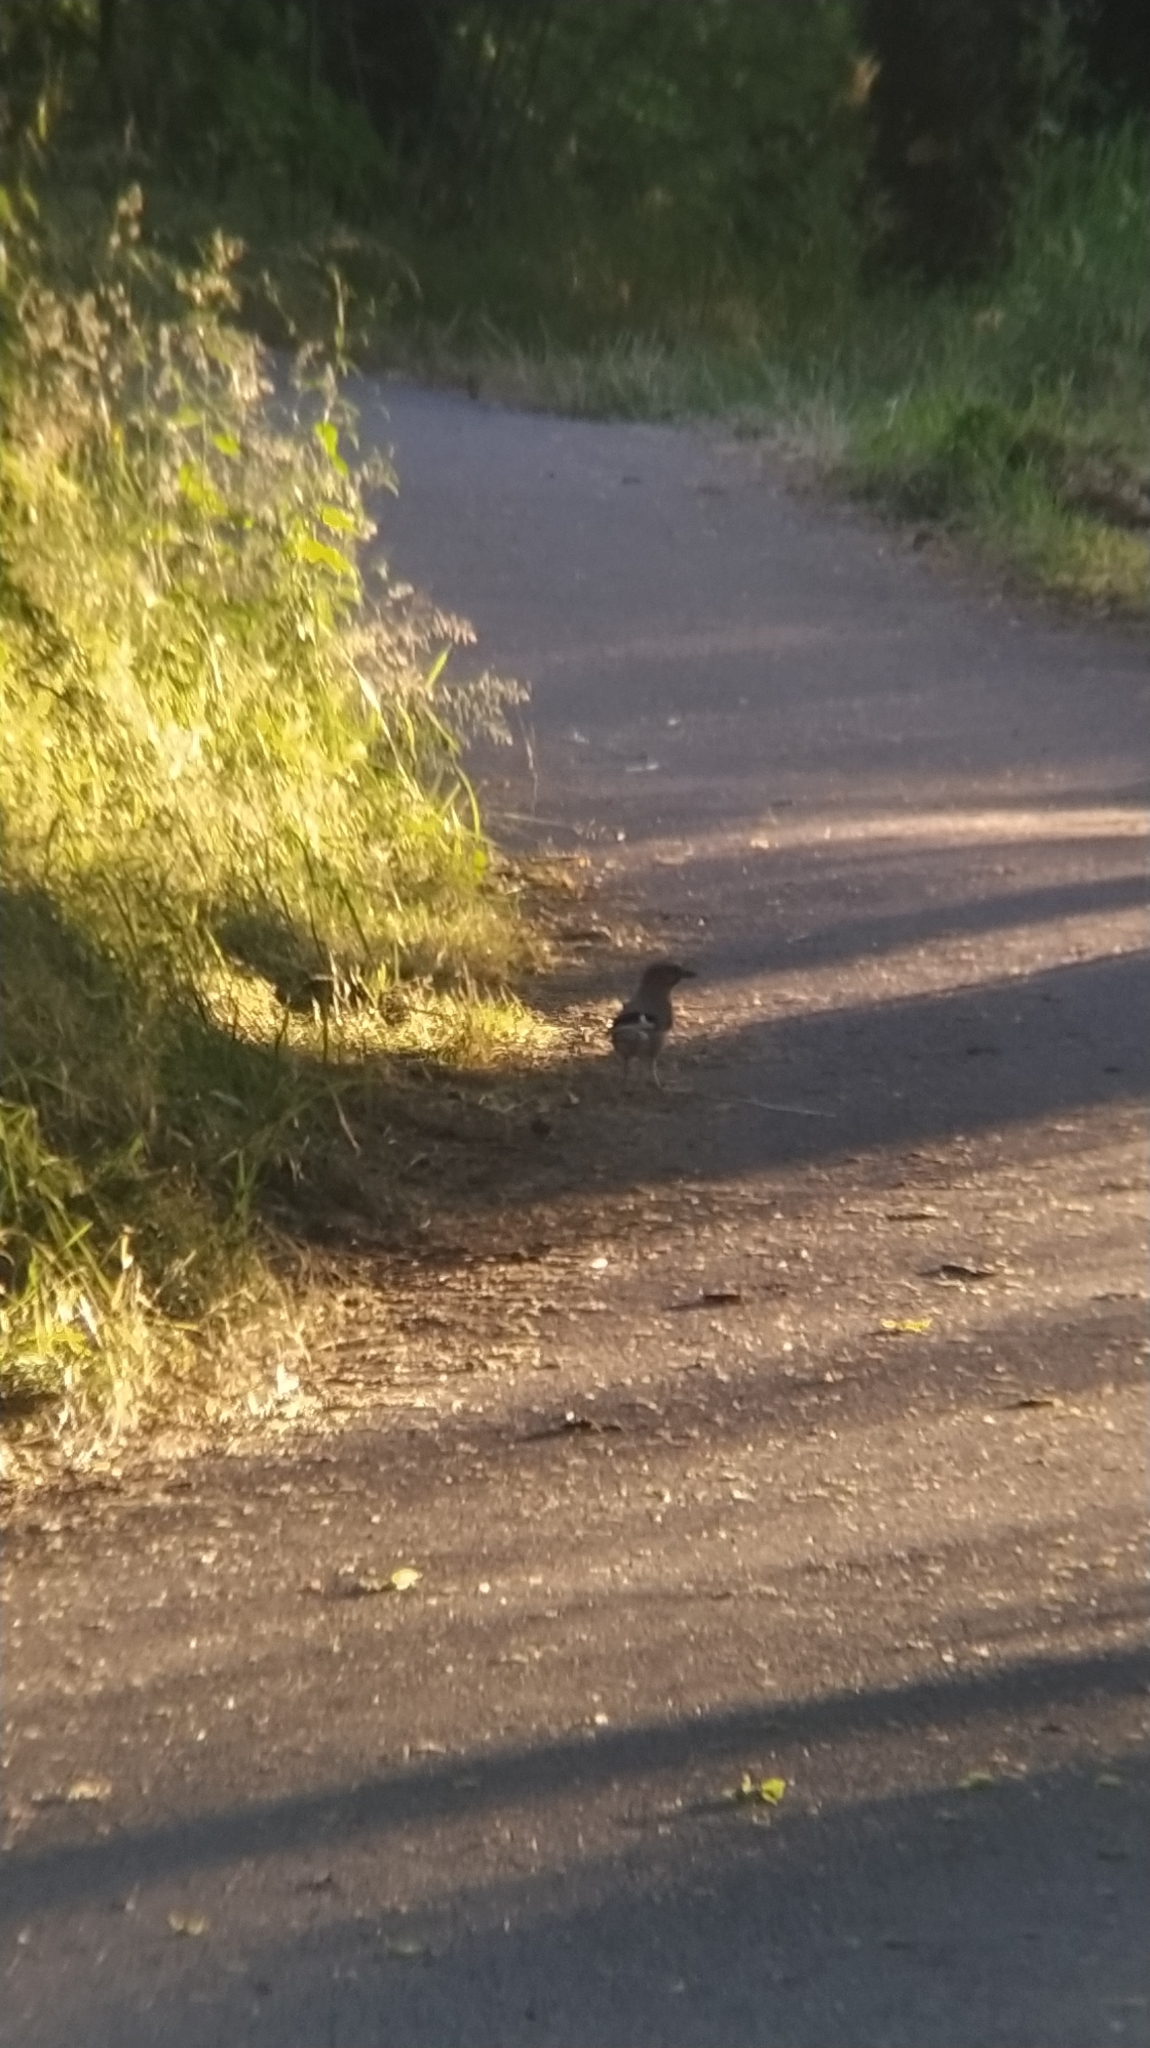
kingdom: Animalia
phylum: Chordata
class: Aves
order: Passeriformes
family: Corvidae
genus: Garrulus
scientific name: Garrulus glandarius
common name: Eurasian jay
